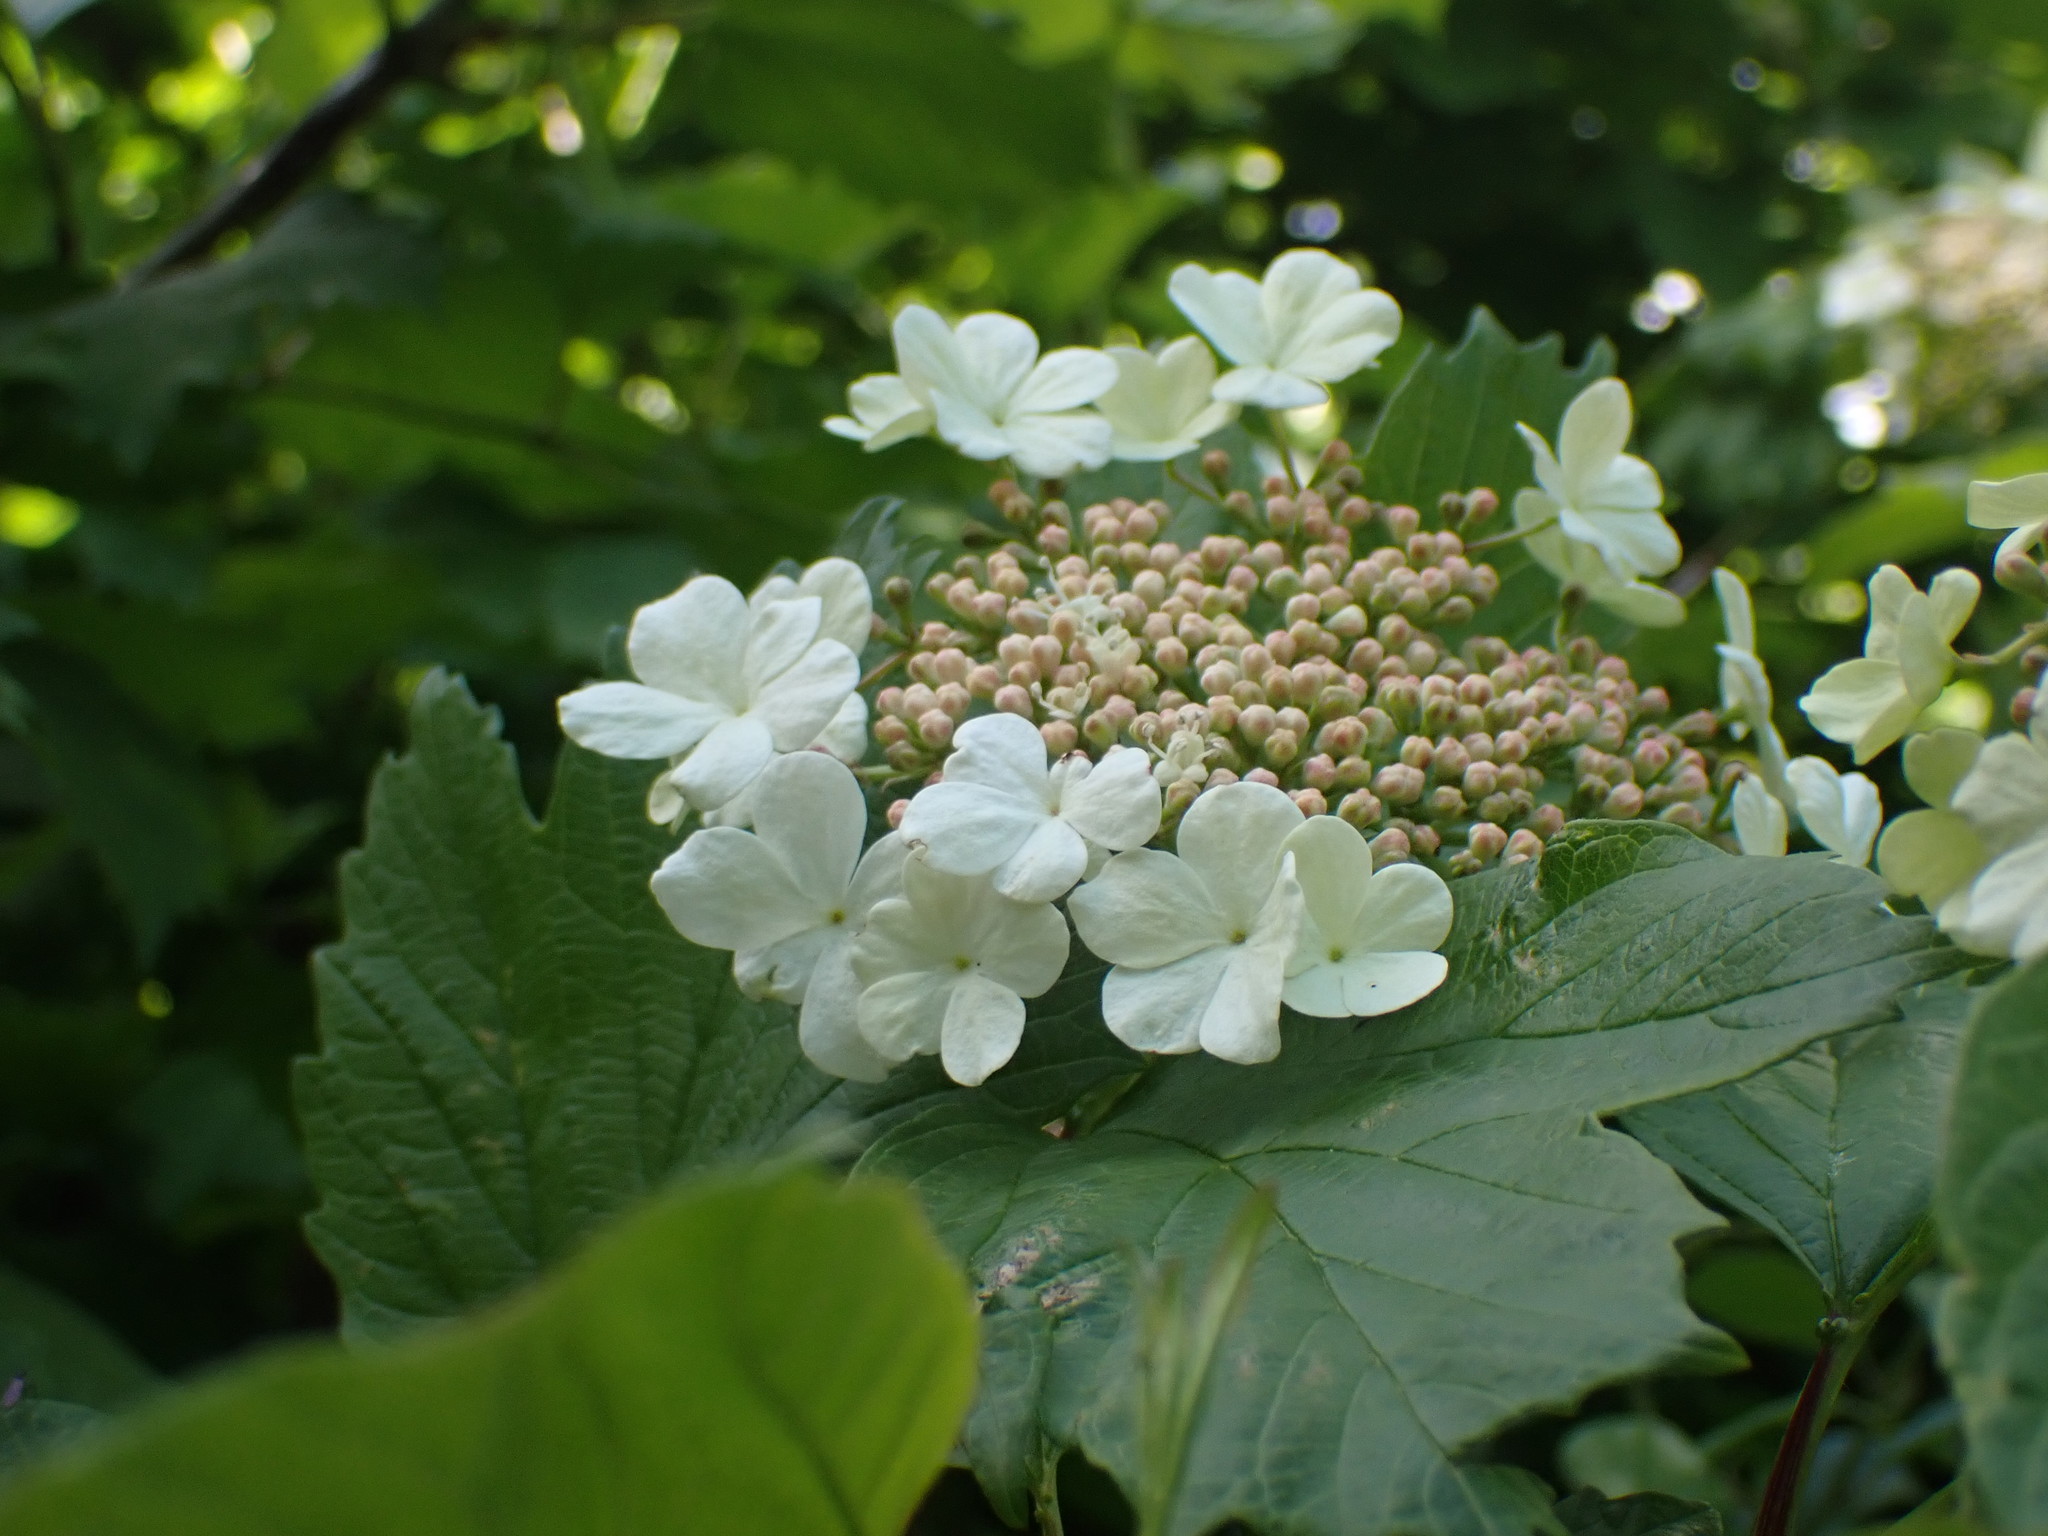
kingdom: Plantae
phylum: Tracheophyta
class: Magnoliopsida
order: Dipsacales
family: Viburnaceae
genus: Viburnum
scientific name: Viburnum opulus
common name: Guelder-rose
